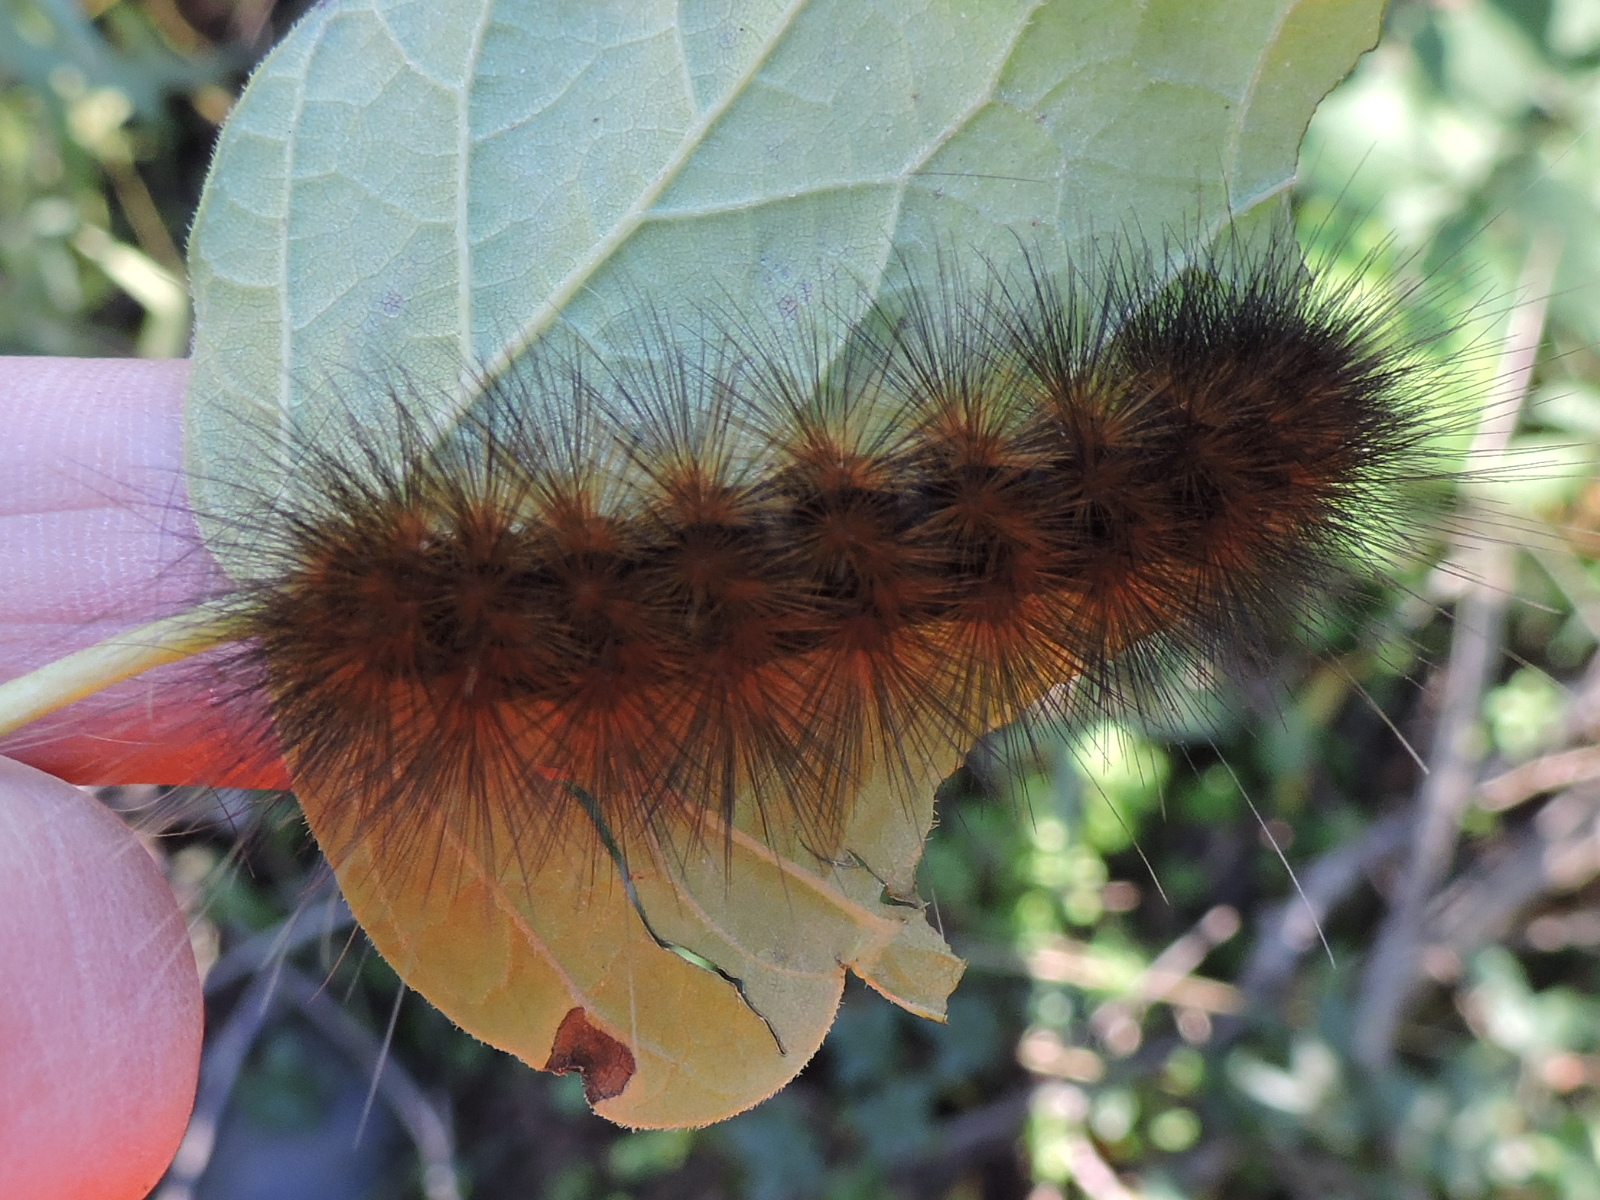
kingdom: Animalia
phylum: Arthropoda
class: Insecta
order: Lepidoptera
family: Erebidae
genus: Estigmene
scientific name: Estigmene acrea
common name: Salt marsh moth
